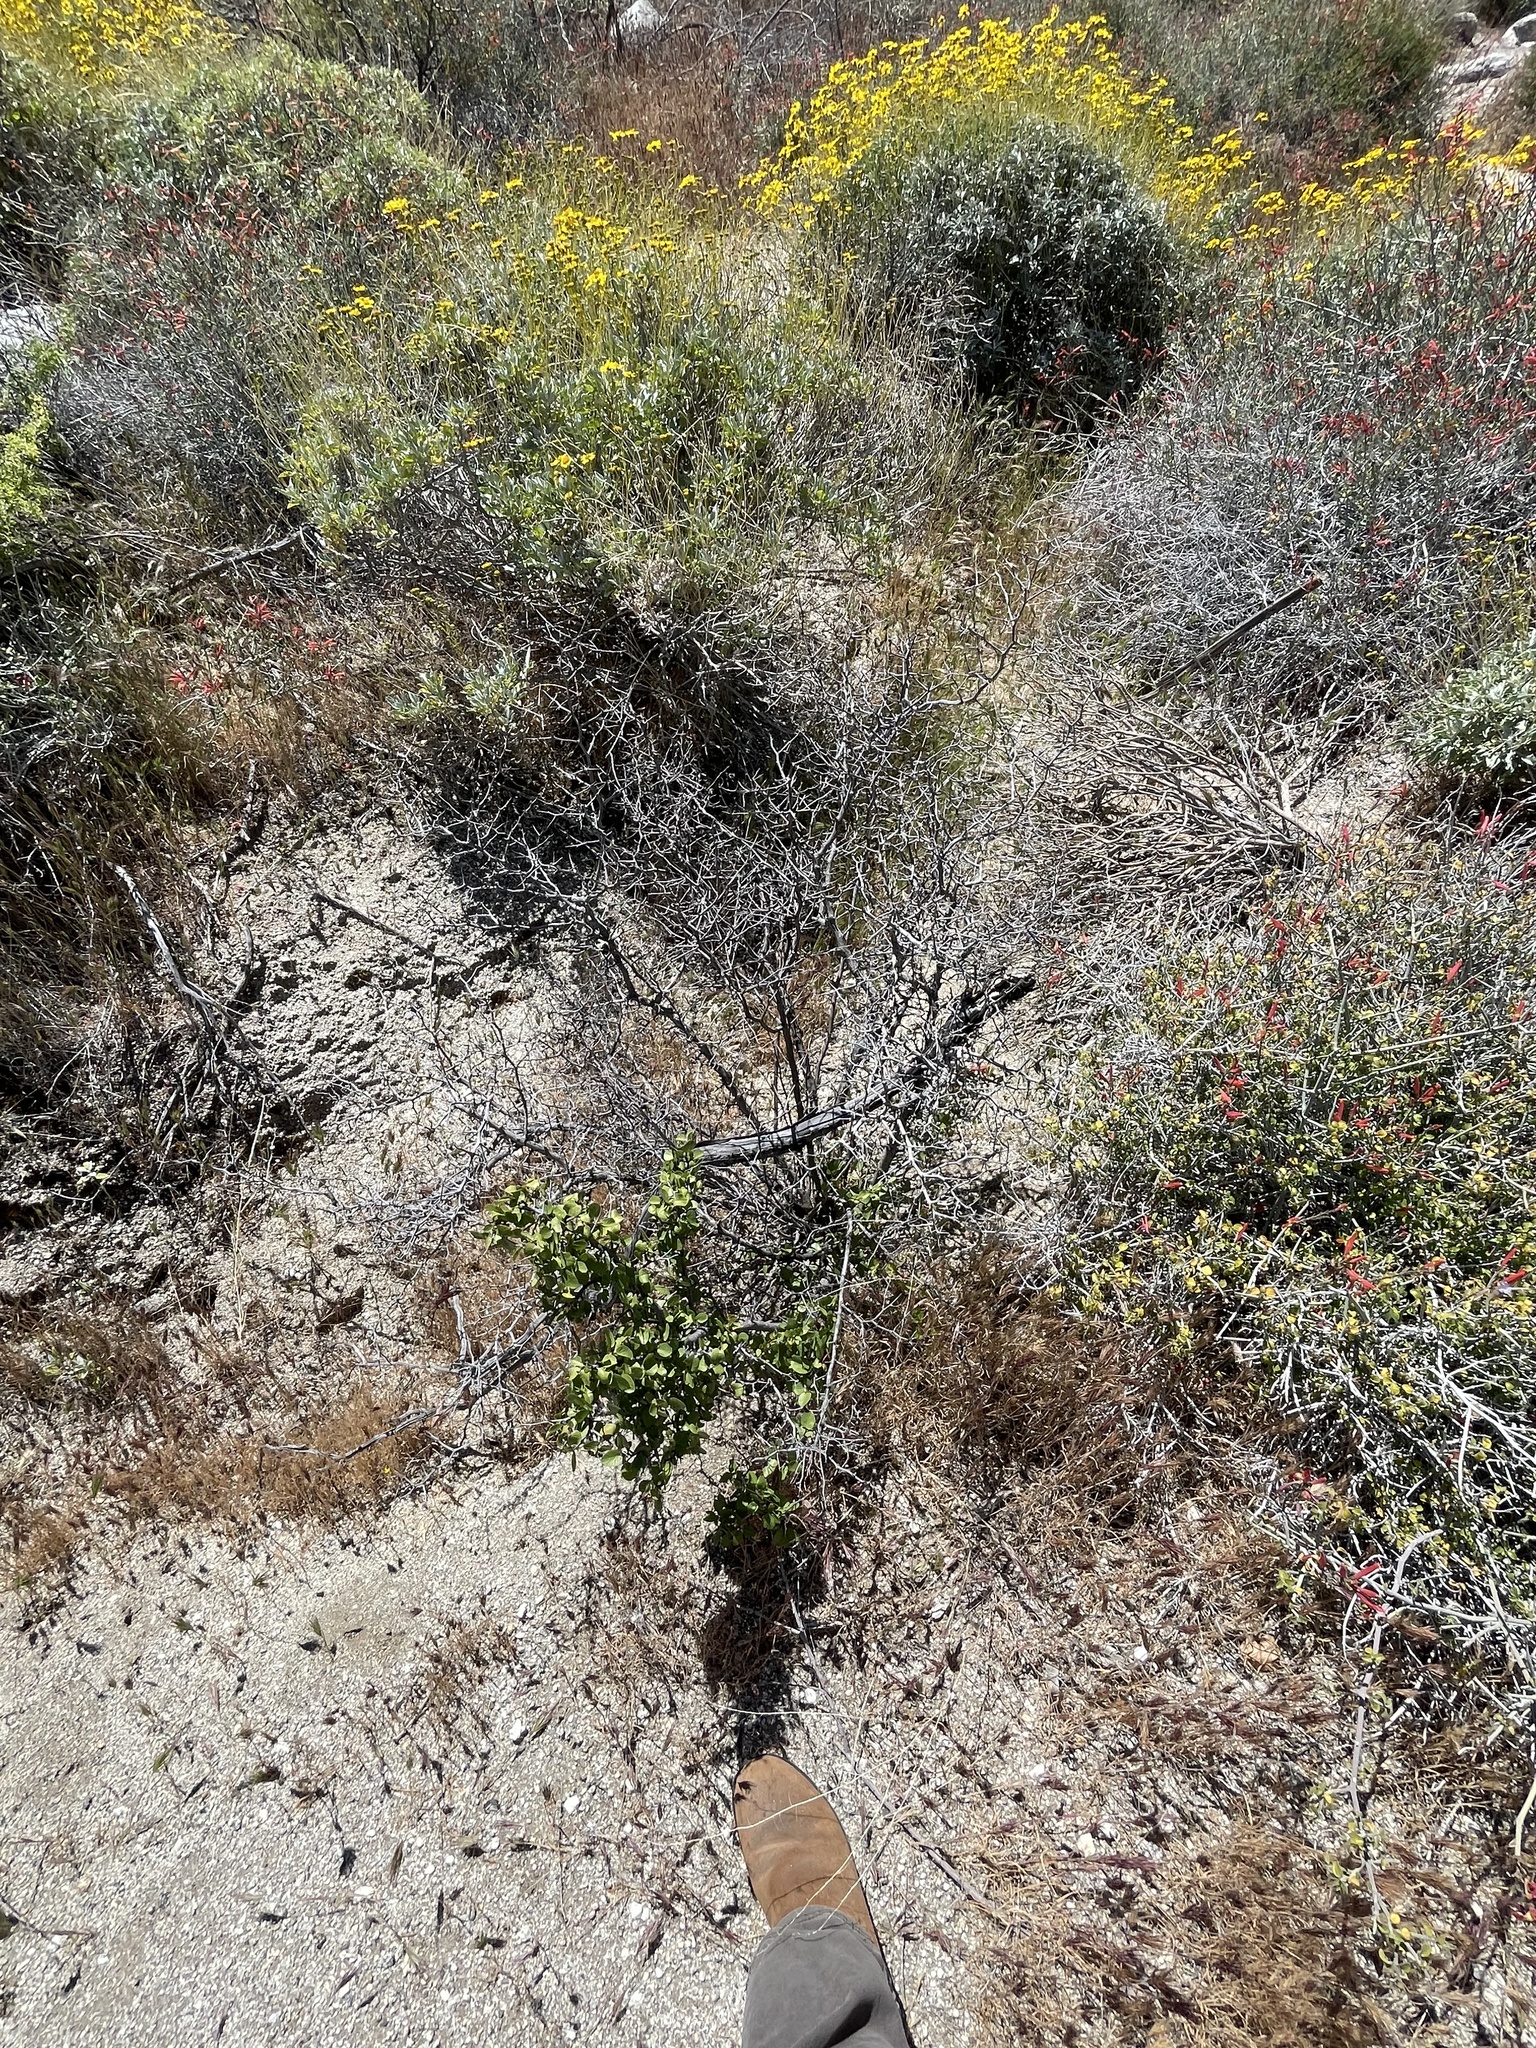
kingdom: Plantae
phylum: Tracheophyta
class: Magnoliopsida
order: Rosales
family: Rosaceae
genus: Prunus
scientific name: Prunus fremontii
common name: Desert apricot
